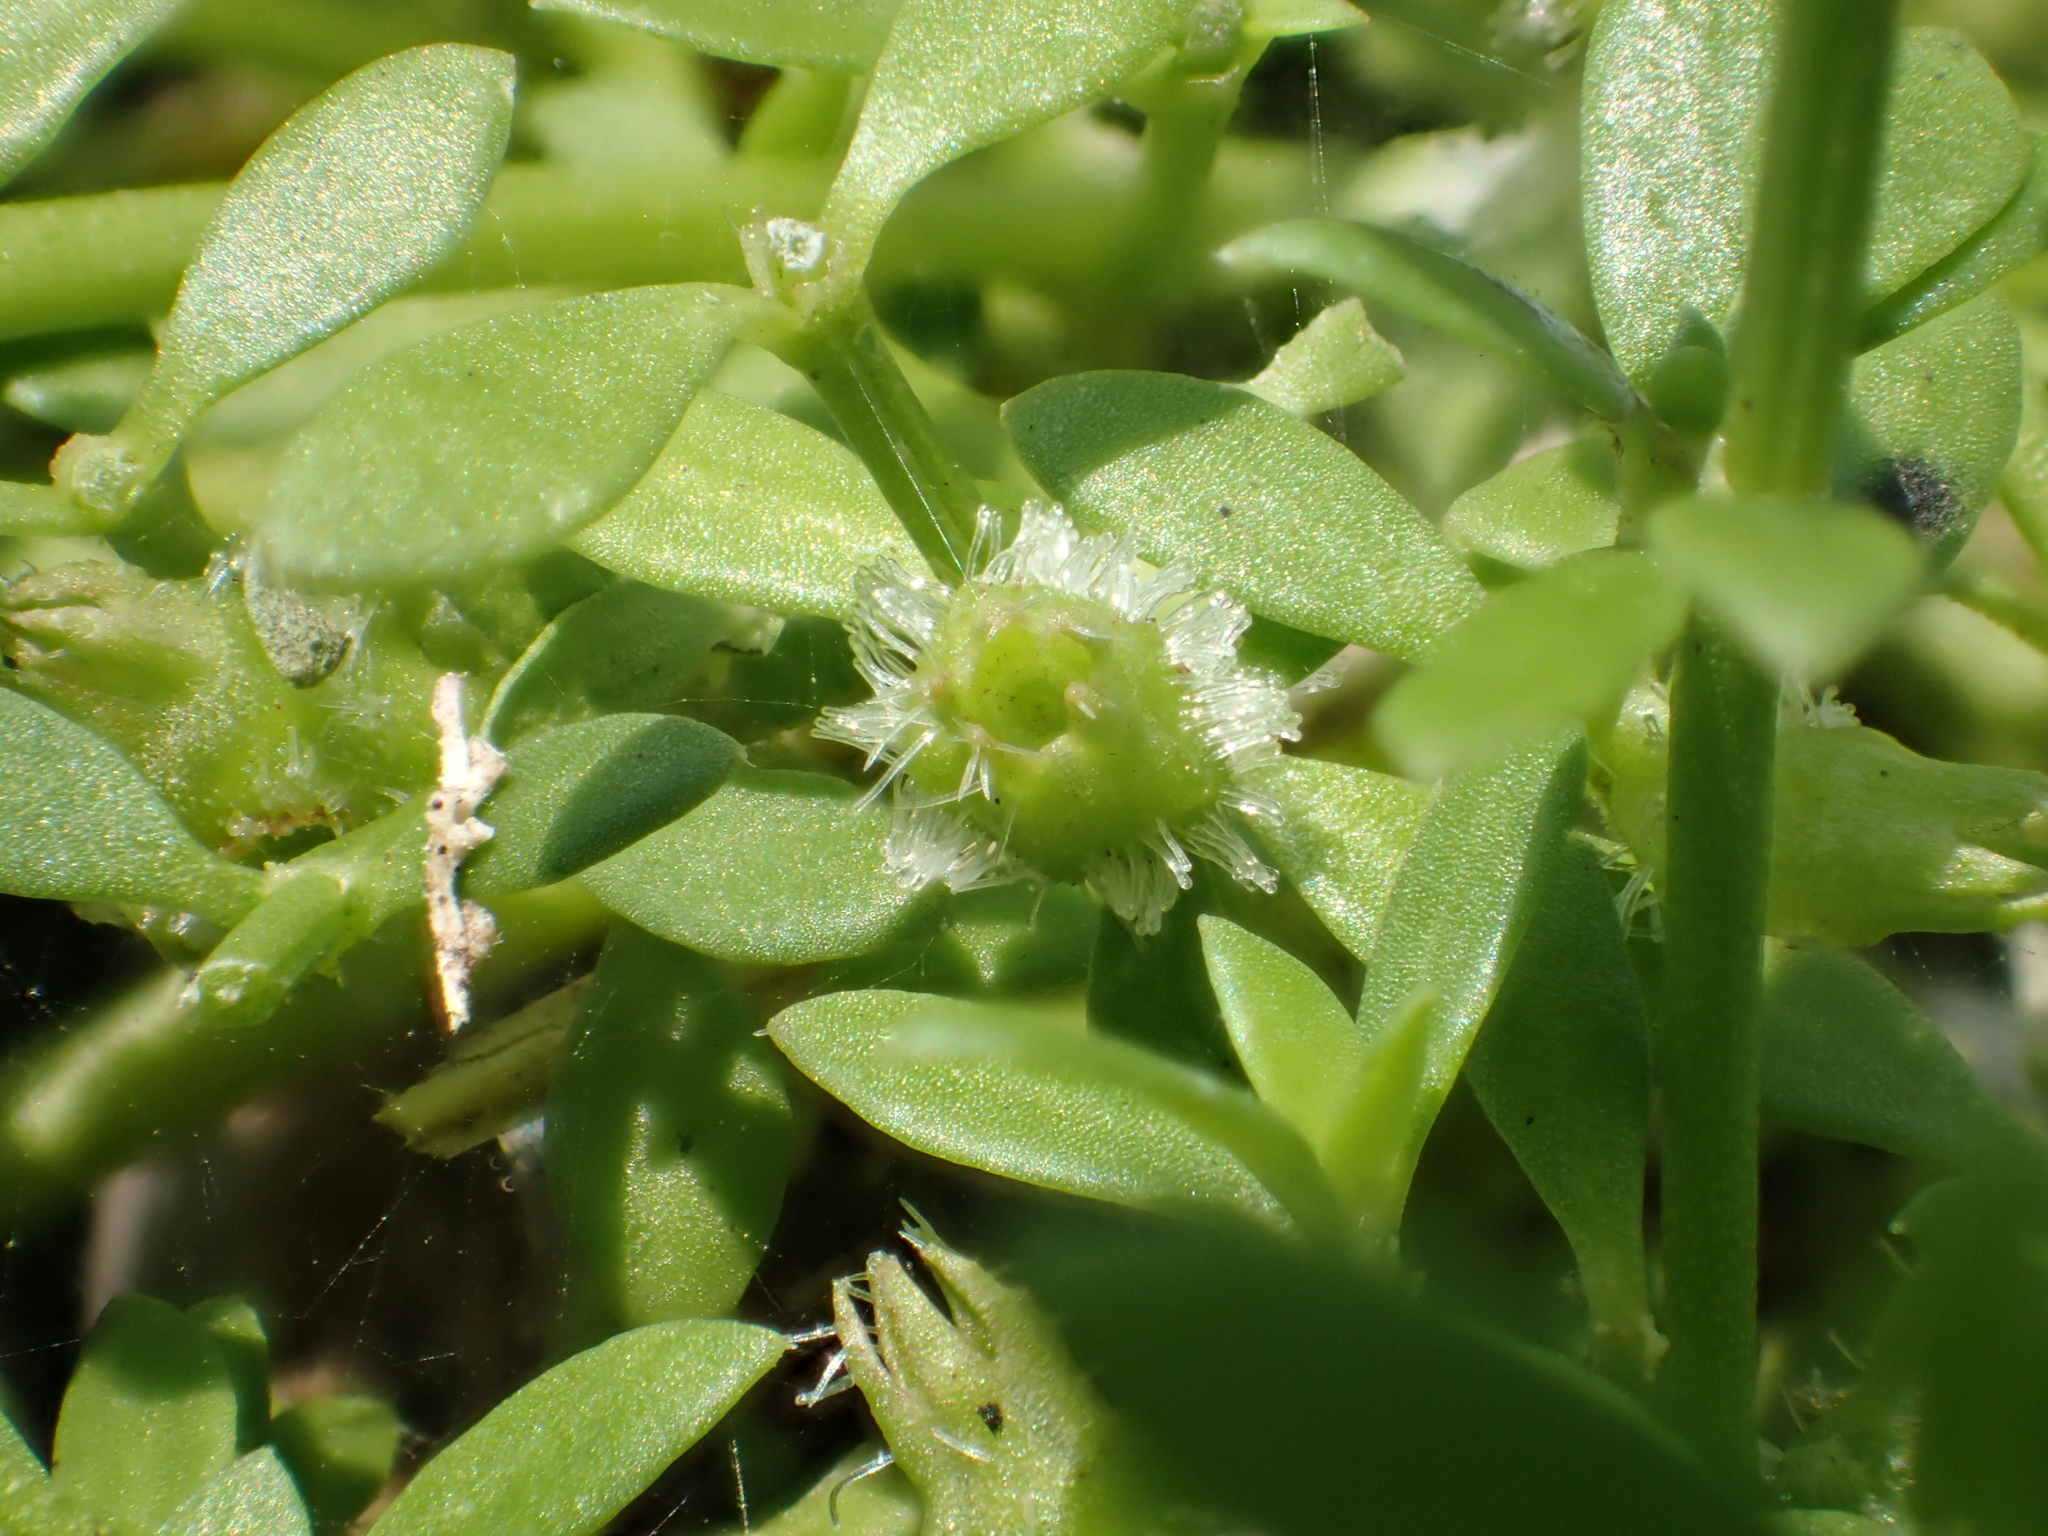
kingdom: Plantae
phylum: Tracheophyta
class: Magnoliopsida
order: Gentianales
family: Rubiaceae
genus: Dentella
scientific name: Dentella repens
